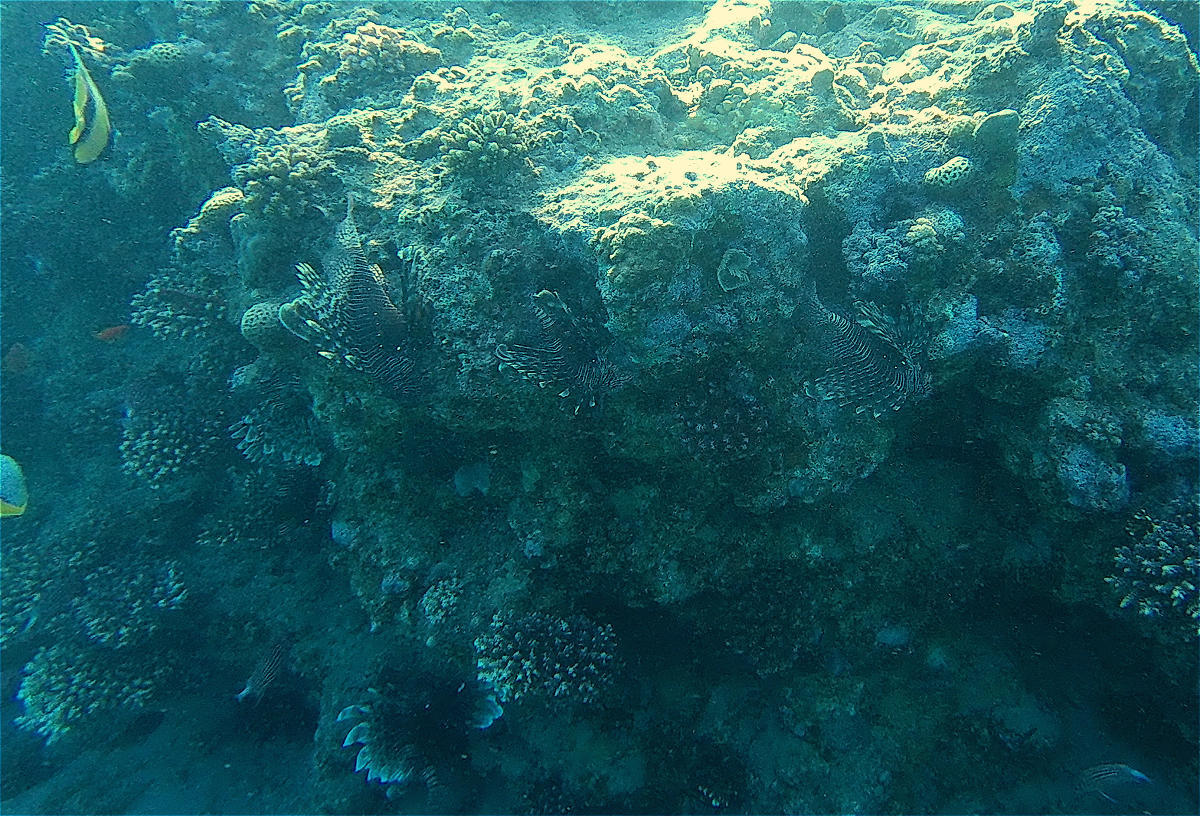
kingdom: Animalia
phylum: Chordata
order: Scorpaeniformes
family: Scorpaenidae
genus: Pterois
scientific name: Pterois miles
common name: Devil firefish
